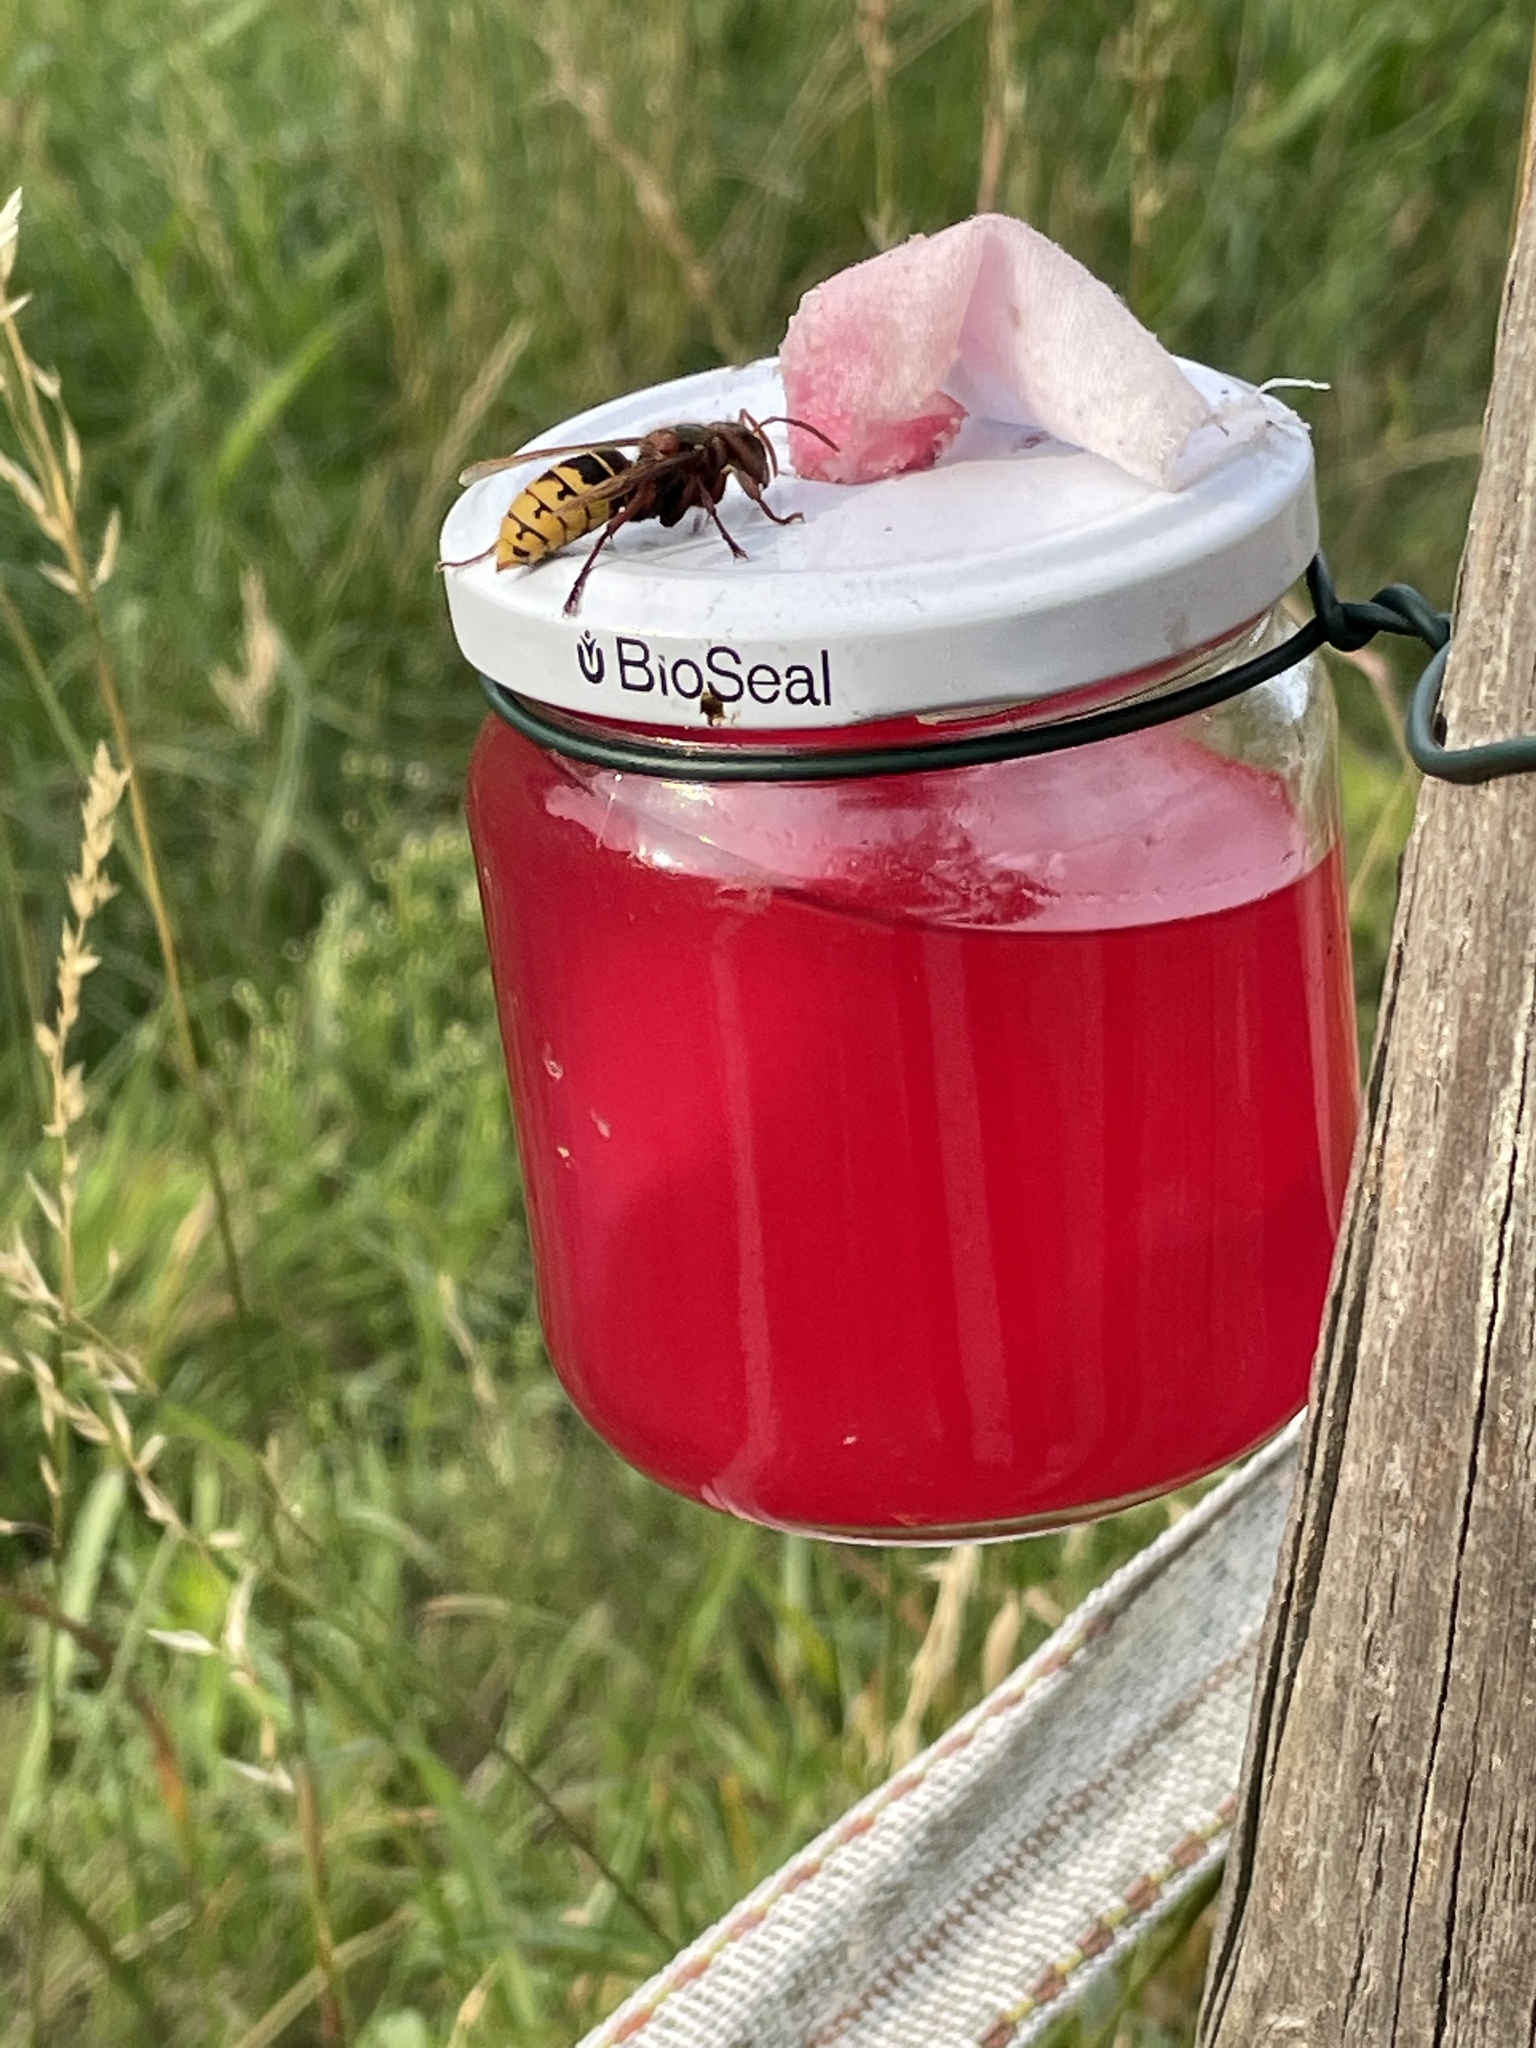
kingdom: Animalia
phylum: Arthropoda
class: Insecta
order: Hymenoptera
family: Vespidae
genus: Vespa
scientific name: Vespa crabro
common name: Hornet
